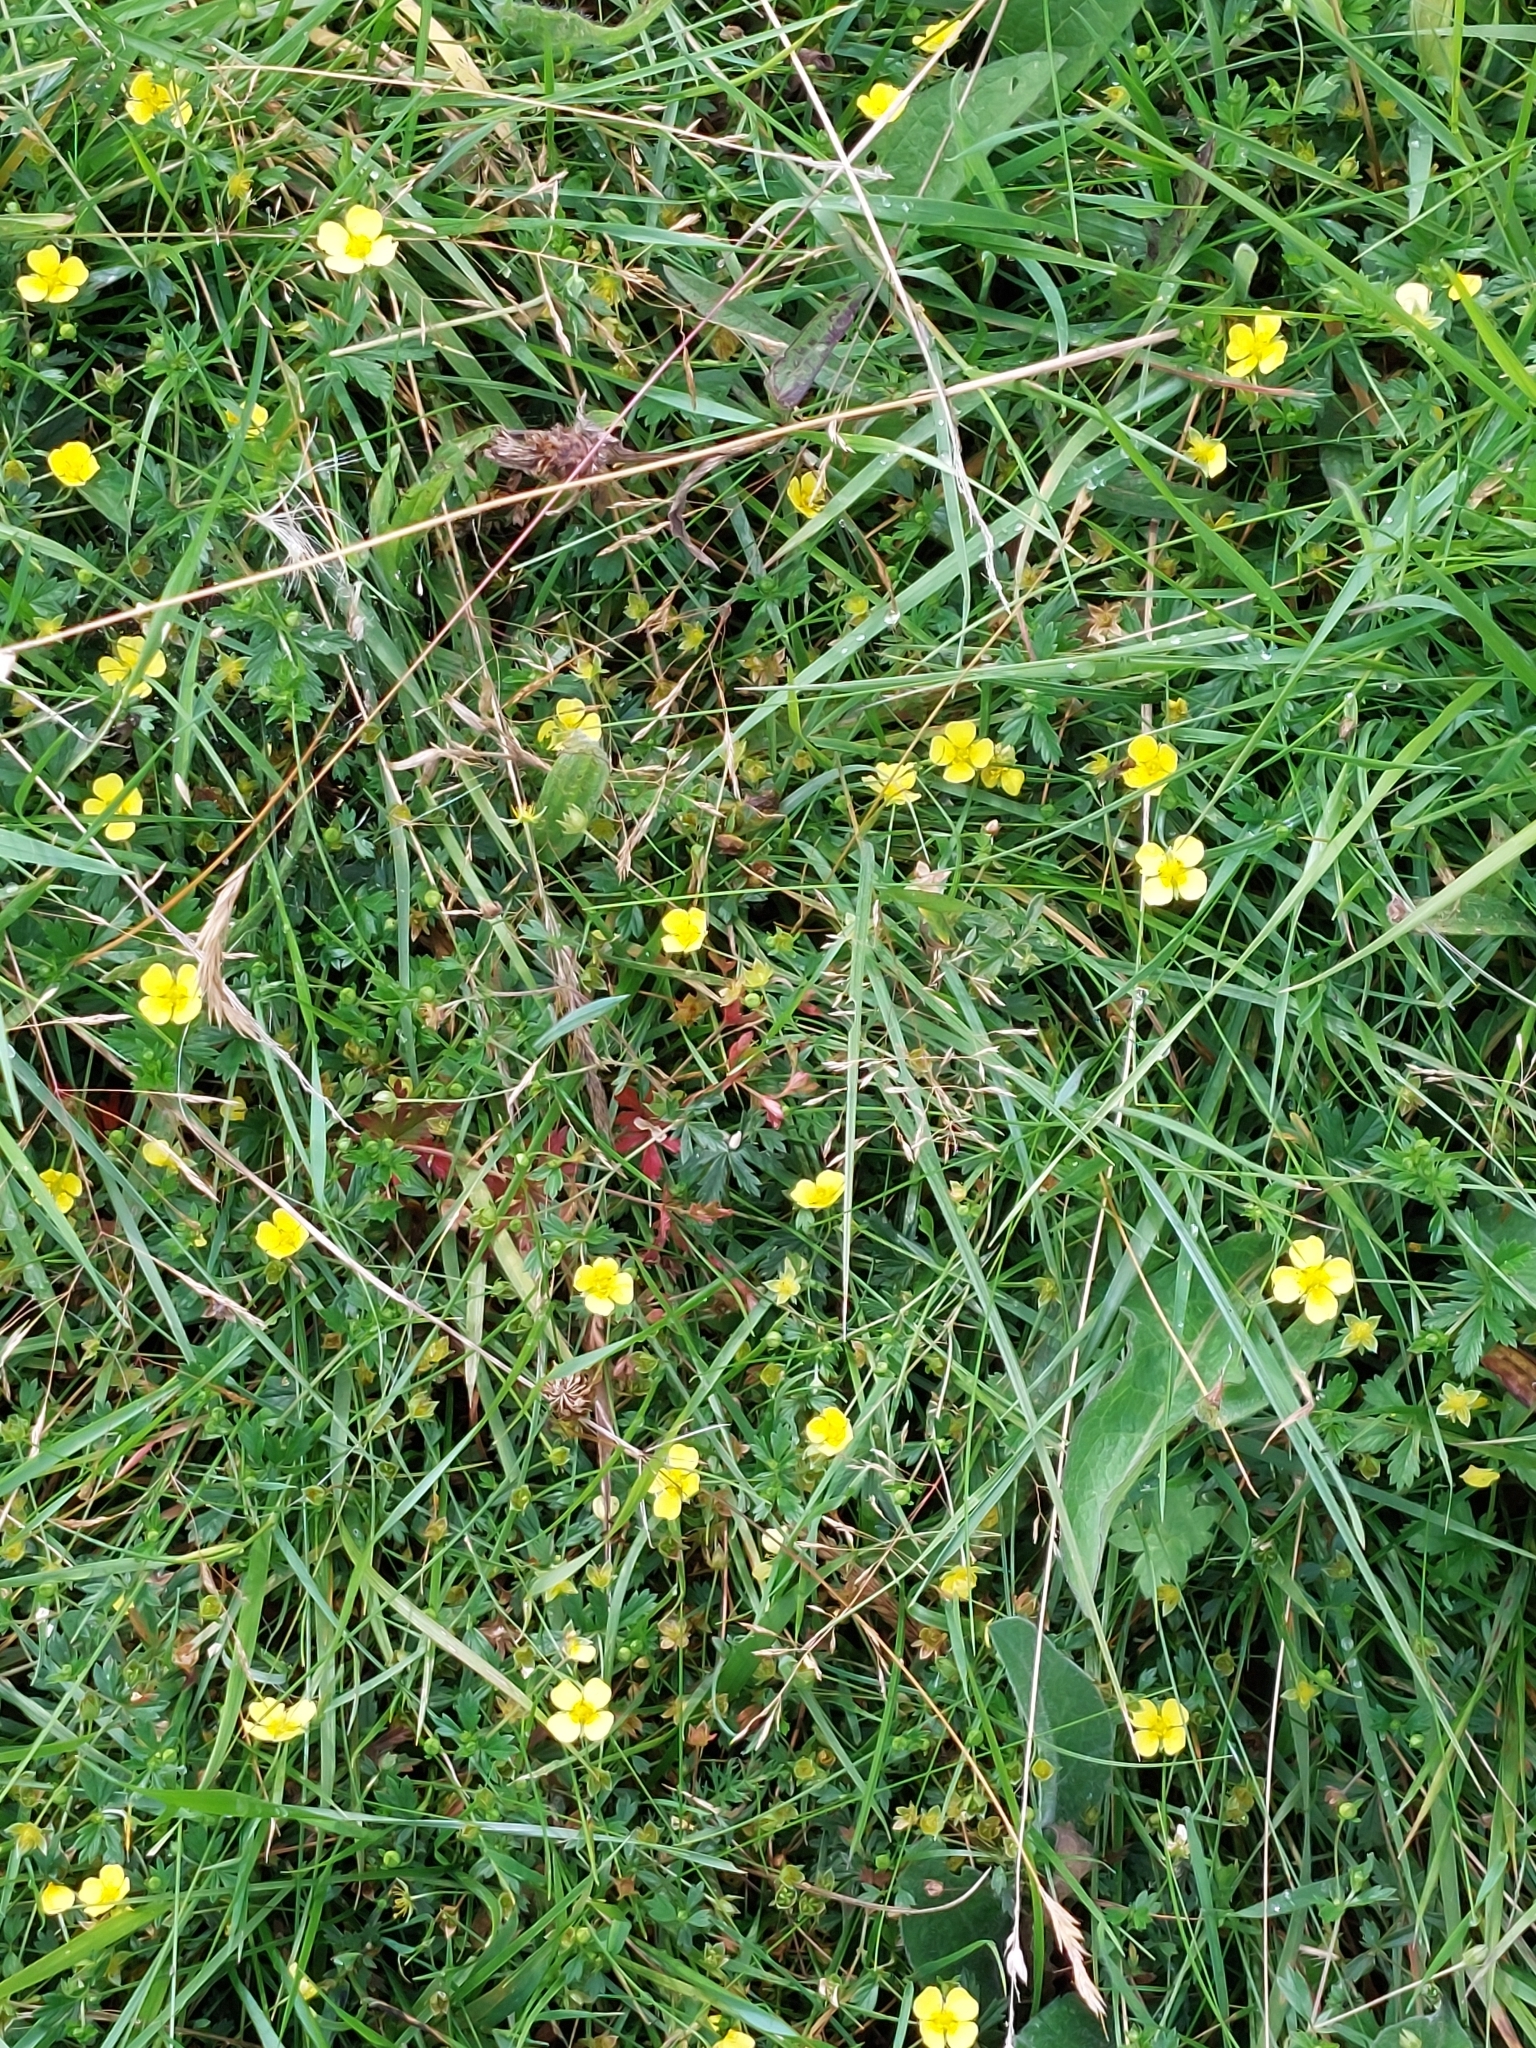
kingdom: Plantae
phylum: Tracheophyta
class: Magnoliopsida
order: Rosales
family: Rosaceae
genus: Potentilla
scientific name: Potentilla erecta
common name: Tormentil
